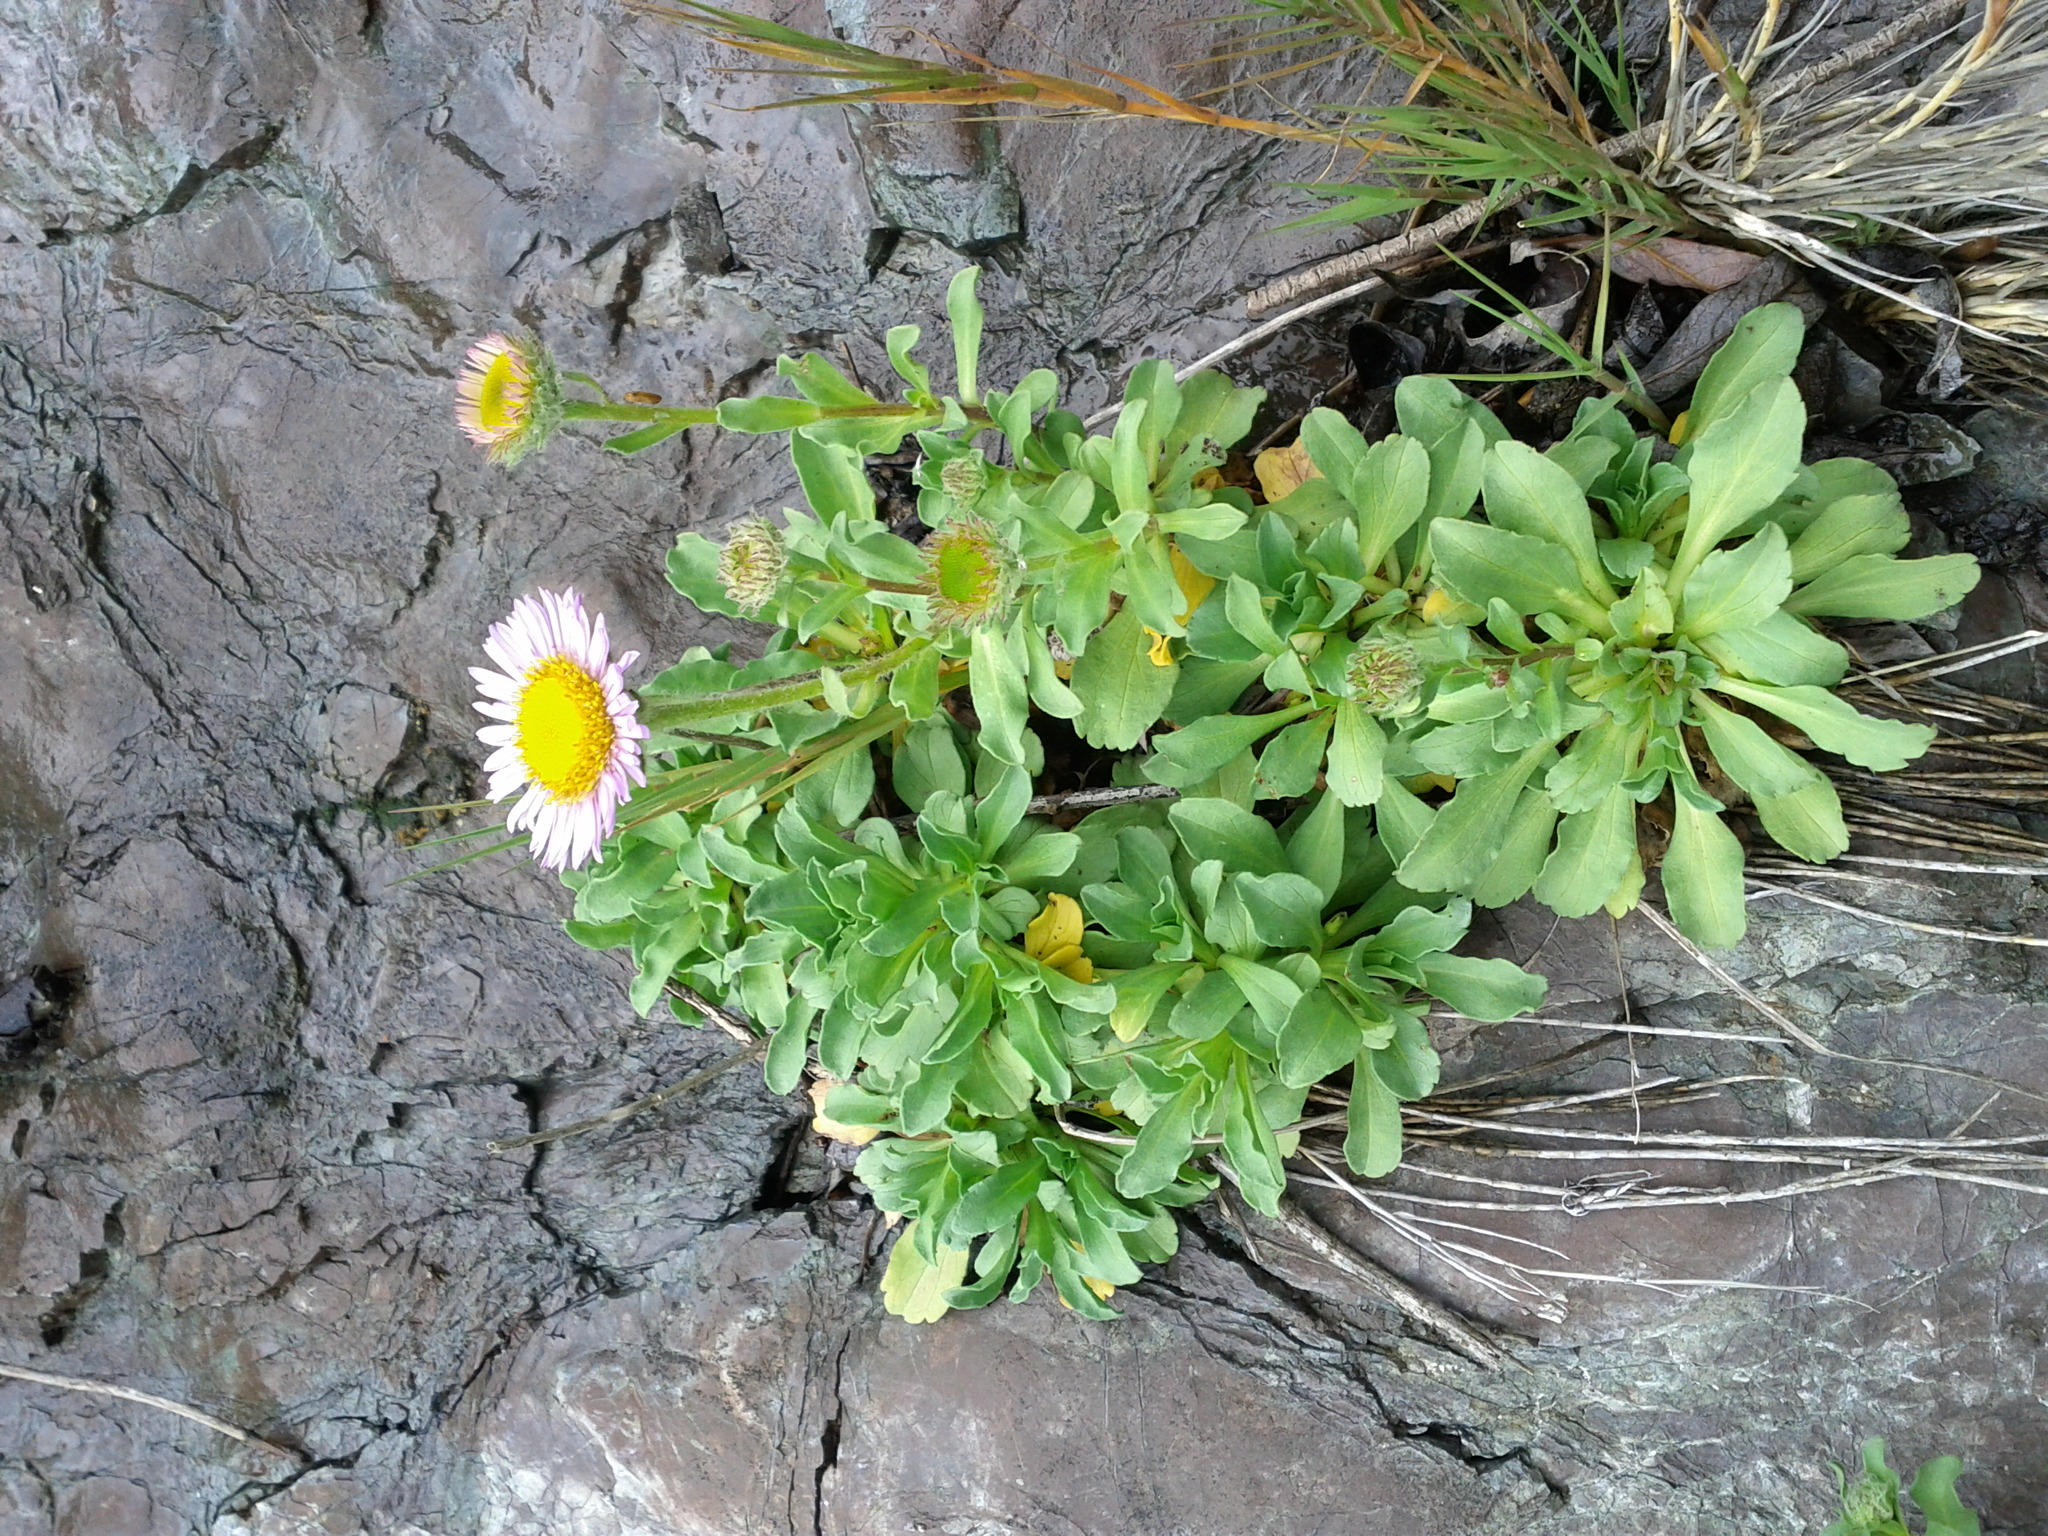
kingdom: Plantae
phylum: Tracheophyta
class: Magnoliopsida
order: Asterales
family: Asteraceae
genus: Erigeron
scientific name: Erigeron glaucus
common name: Seaside daisy
